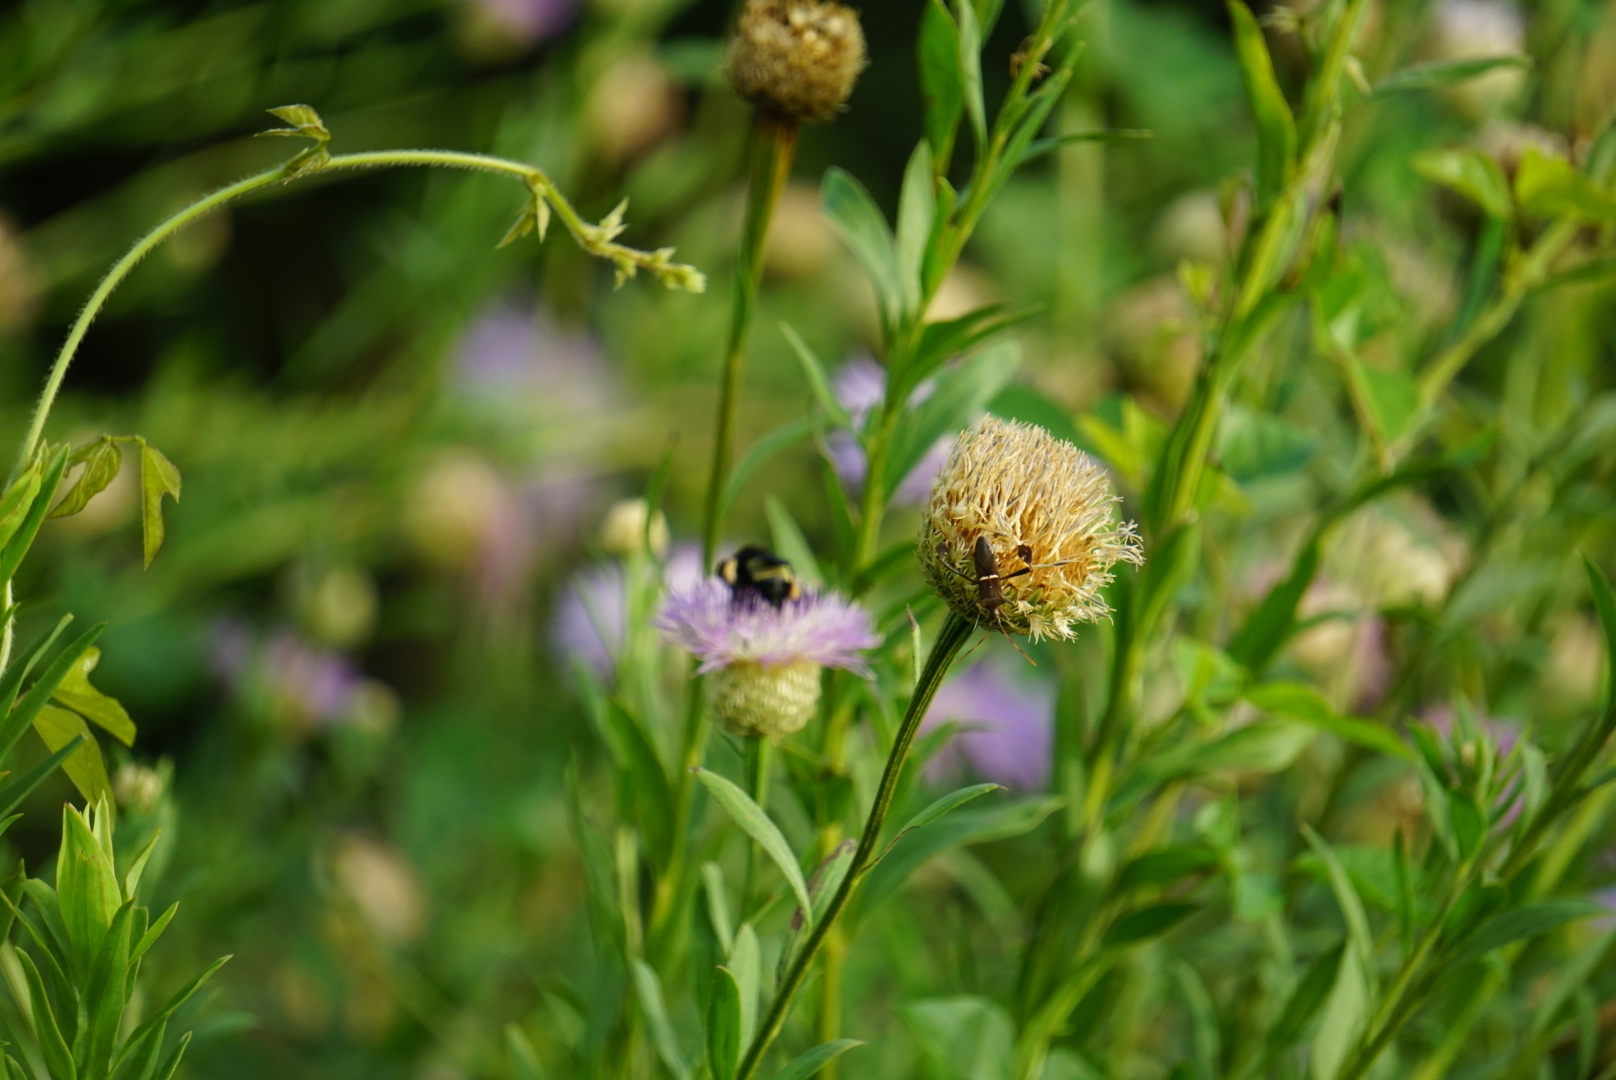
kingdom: Plantae
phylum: Tracheophyta
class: Magnoliopsida
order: Asterales
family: Asteraceae
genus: Plectocephalus
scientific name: Plectocephalus americanus
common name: American basket-flower
